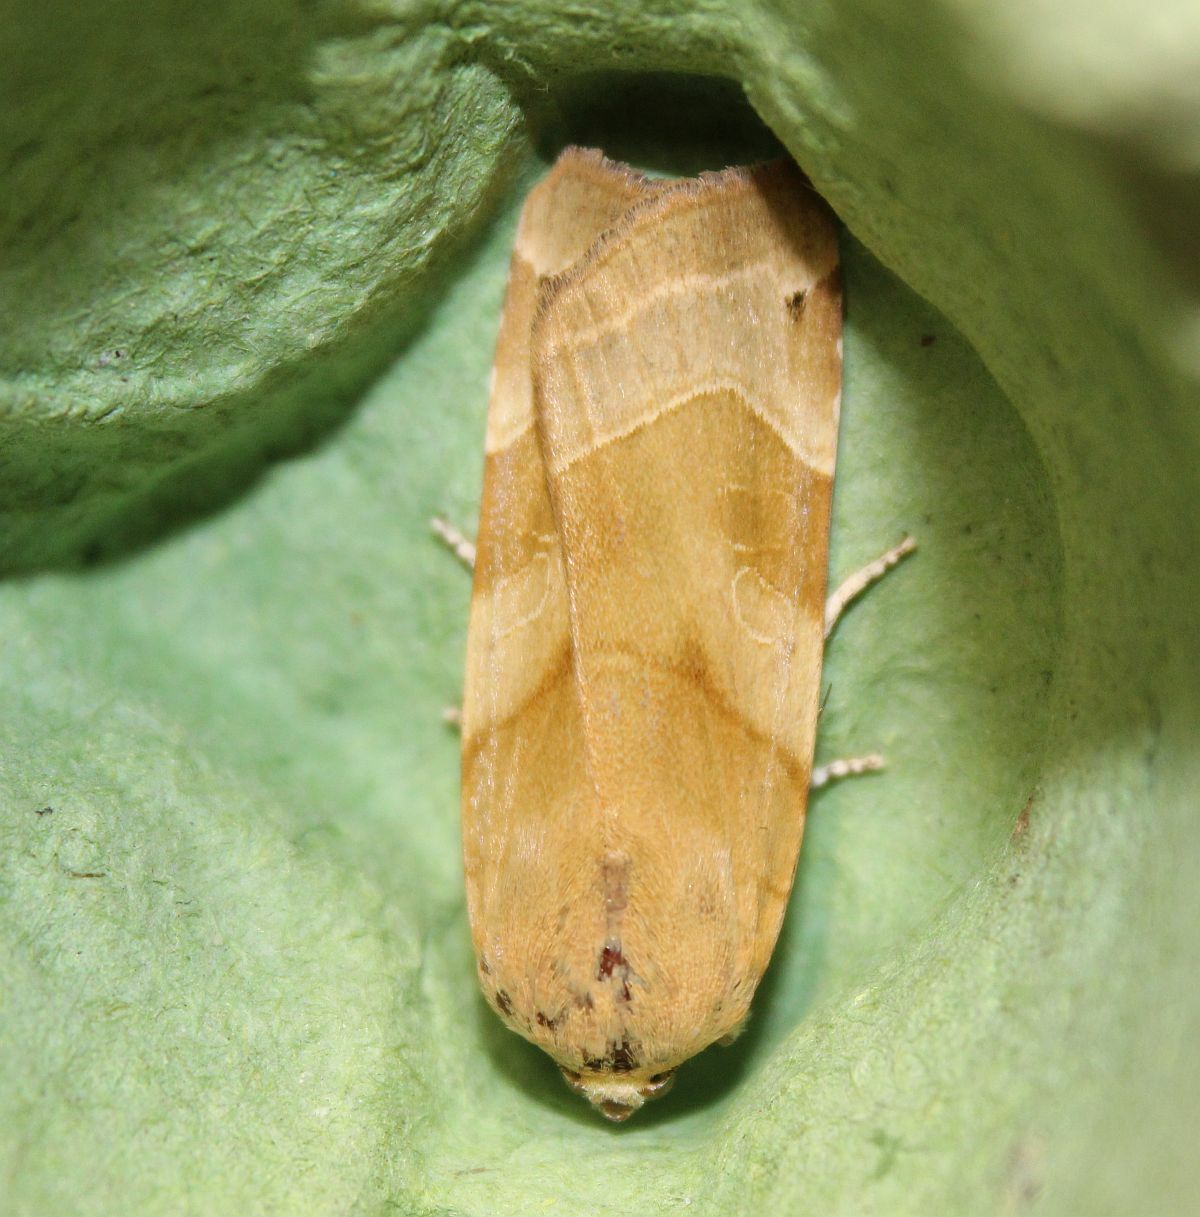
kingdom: Animalia
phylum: Arthropoda
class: Insecta
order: Lepidoptera
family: Noctuidae
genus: Noctua
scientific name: Noctua fimbriata
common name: Broad-bordered yellow underwing
